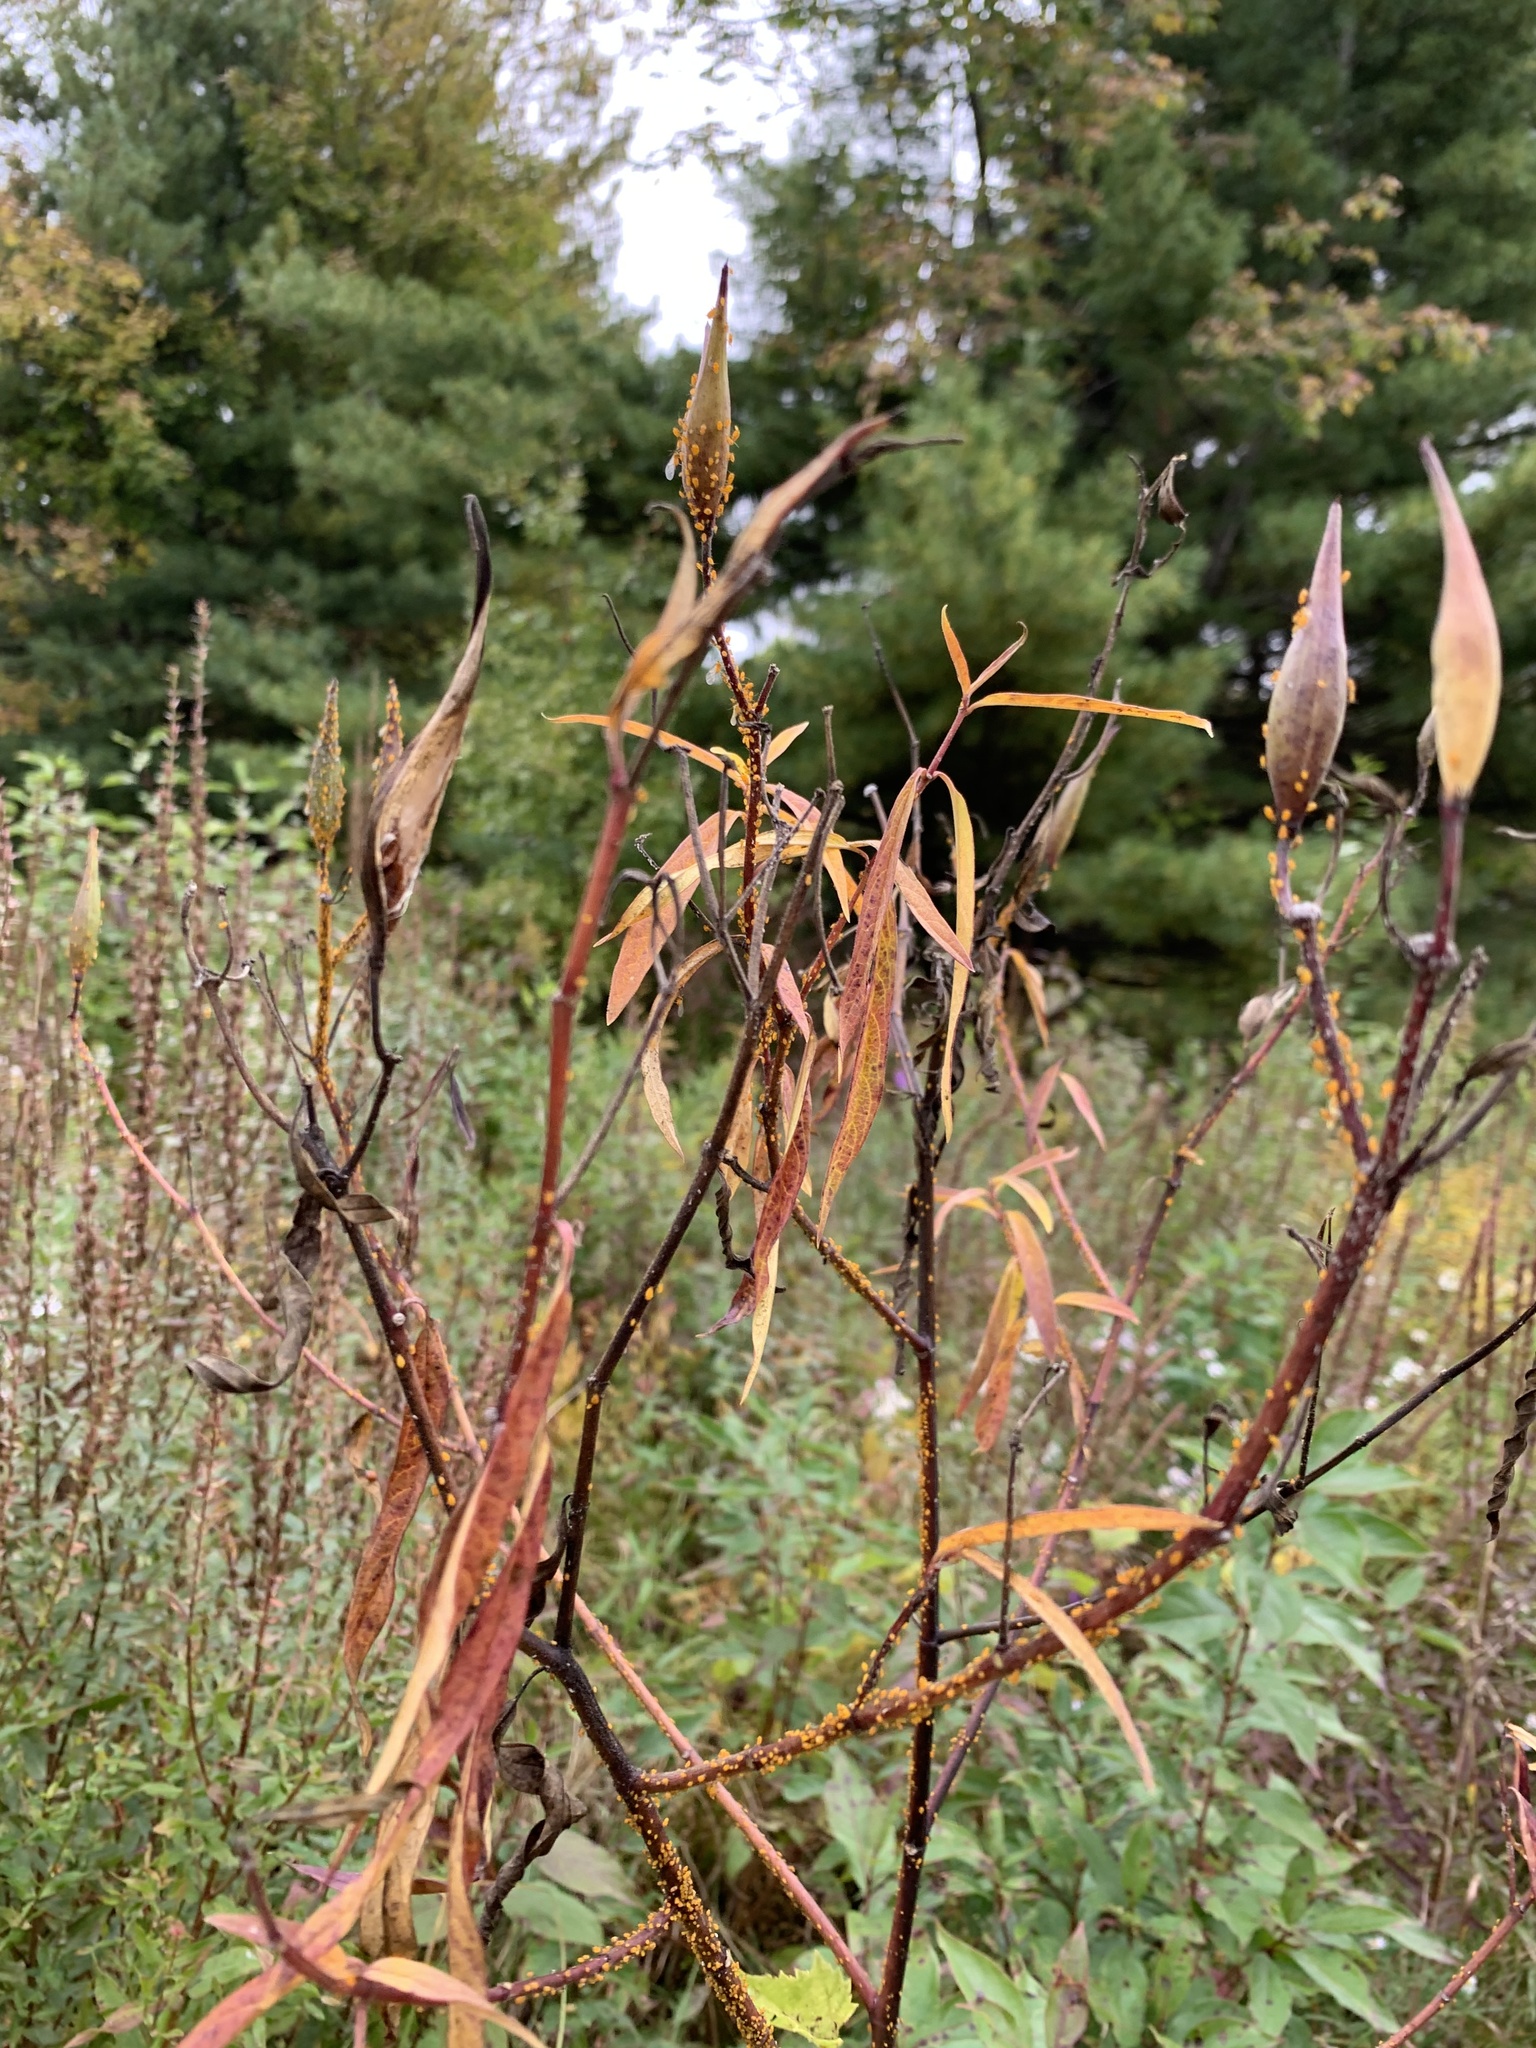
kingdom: Plantae
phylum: Tracheophyta
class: Magnoliopsida
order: Gentianales
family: Apocynaceae
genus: Asclepias
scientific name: Asclepias incarnata
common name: Swamp milkweed
